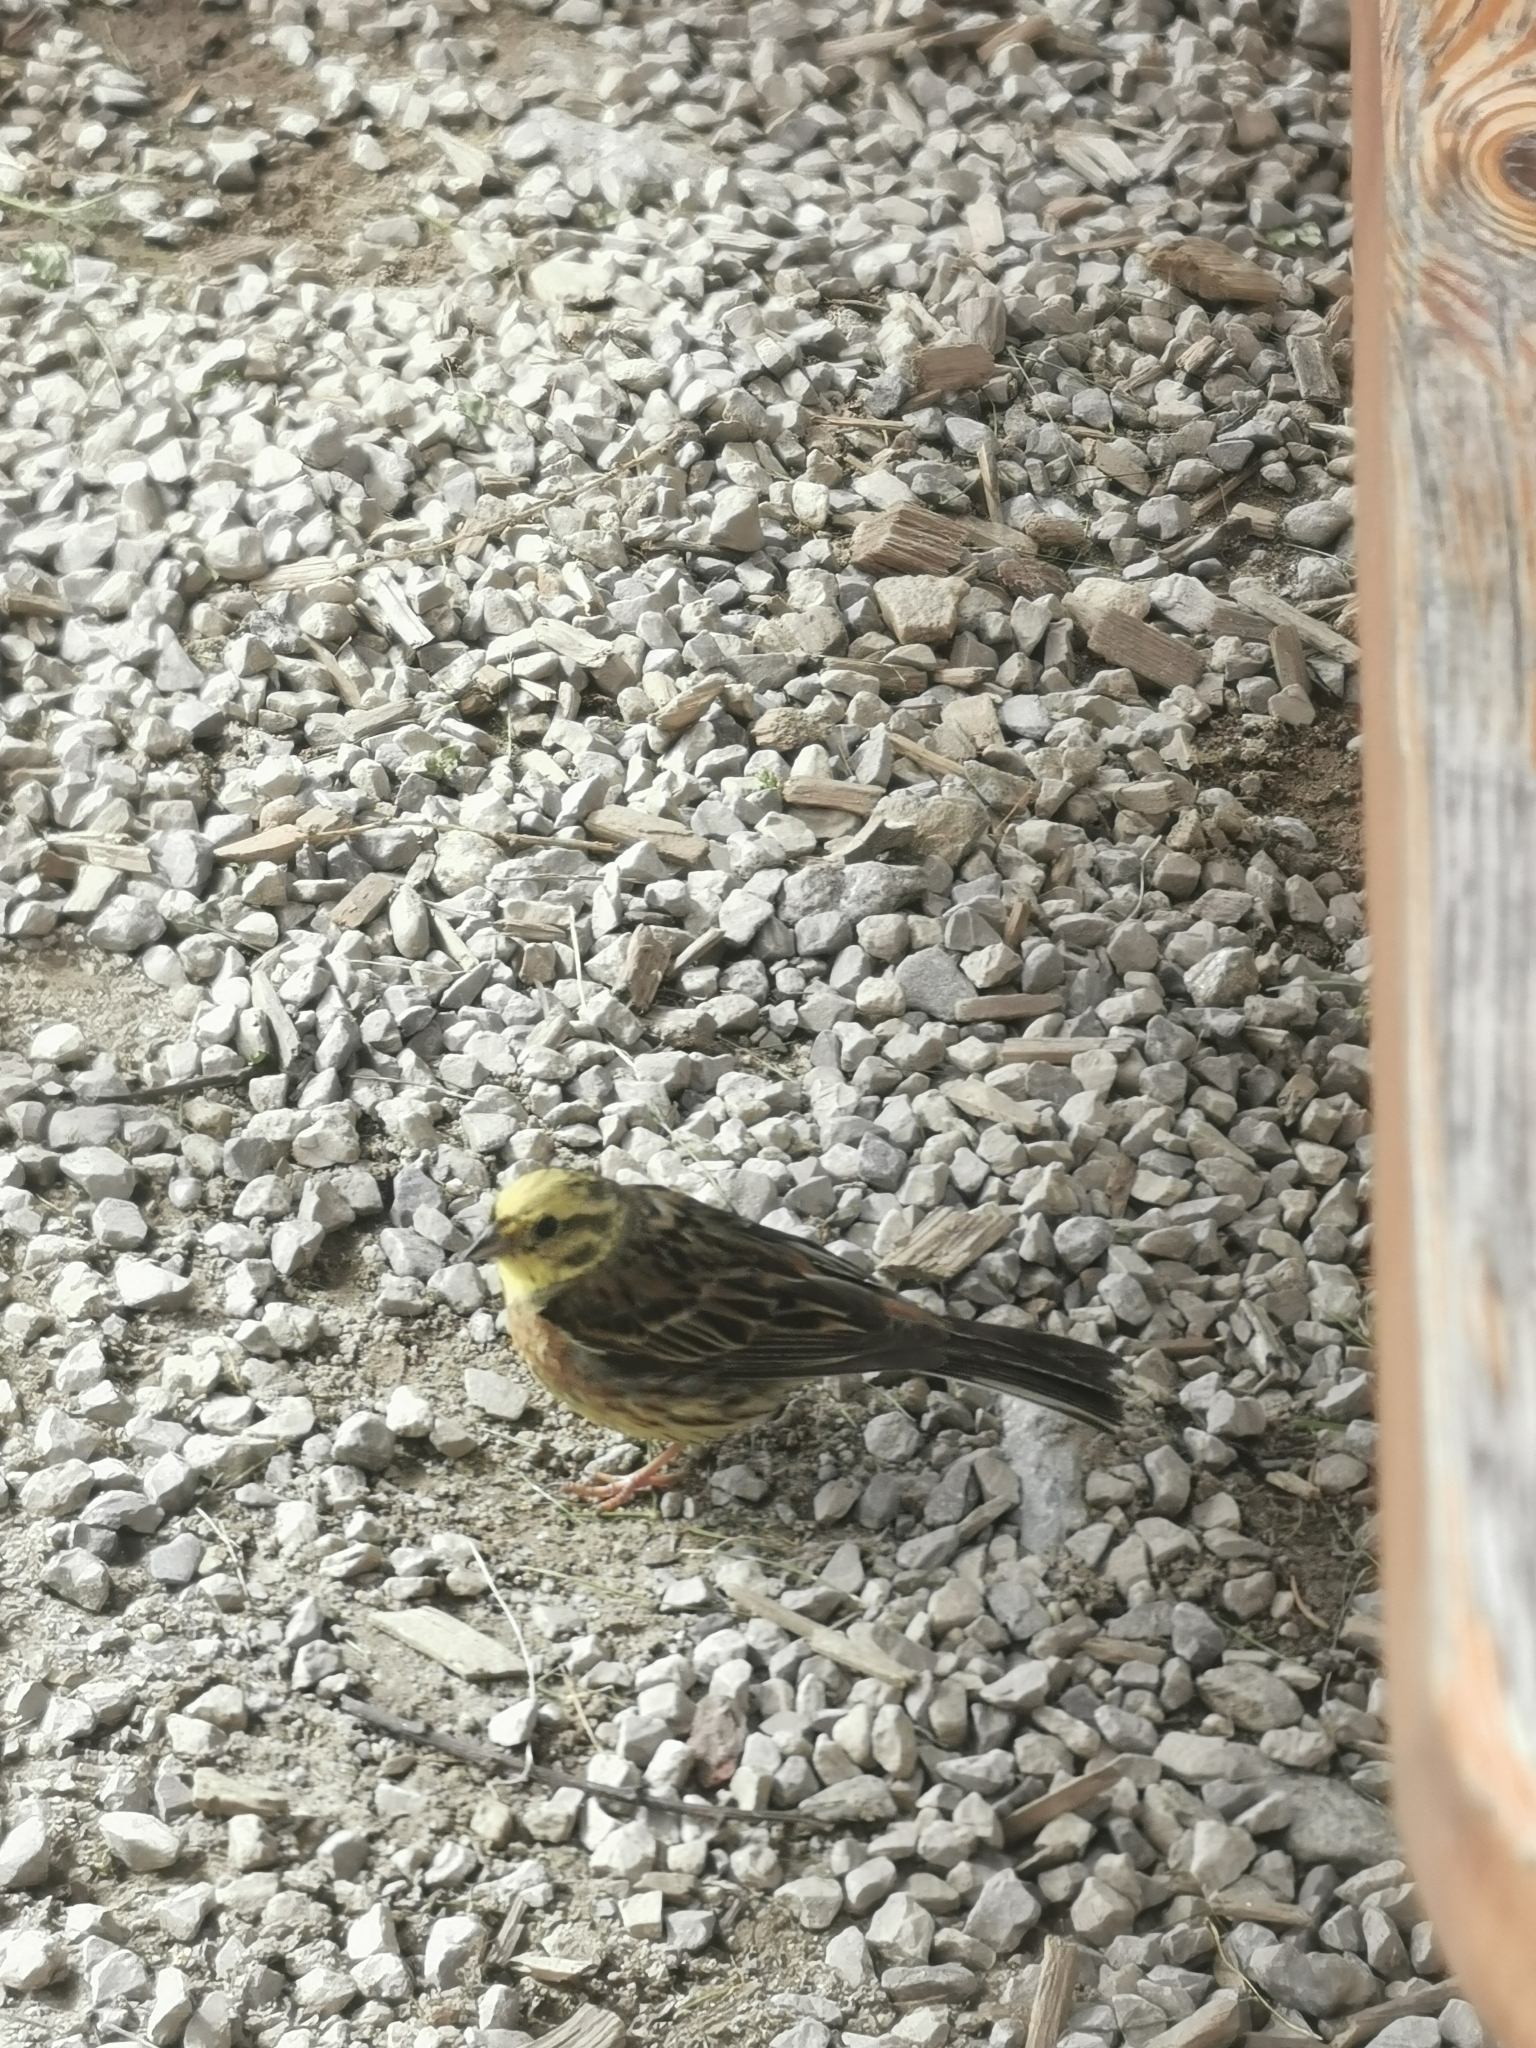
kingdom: Animalia
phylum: Chordata
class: Aves
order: Passeriformes
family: Emberizidae
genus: Emberiza
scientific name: Emberiza citrinella
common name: Yellowhammer
